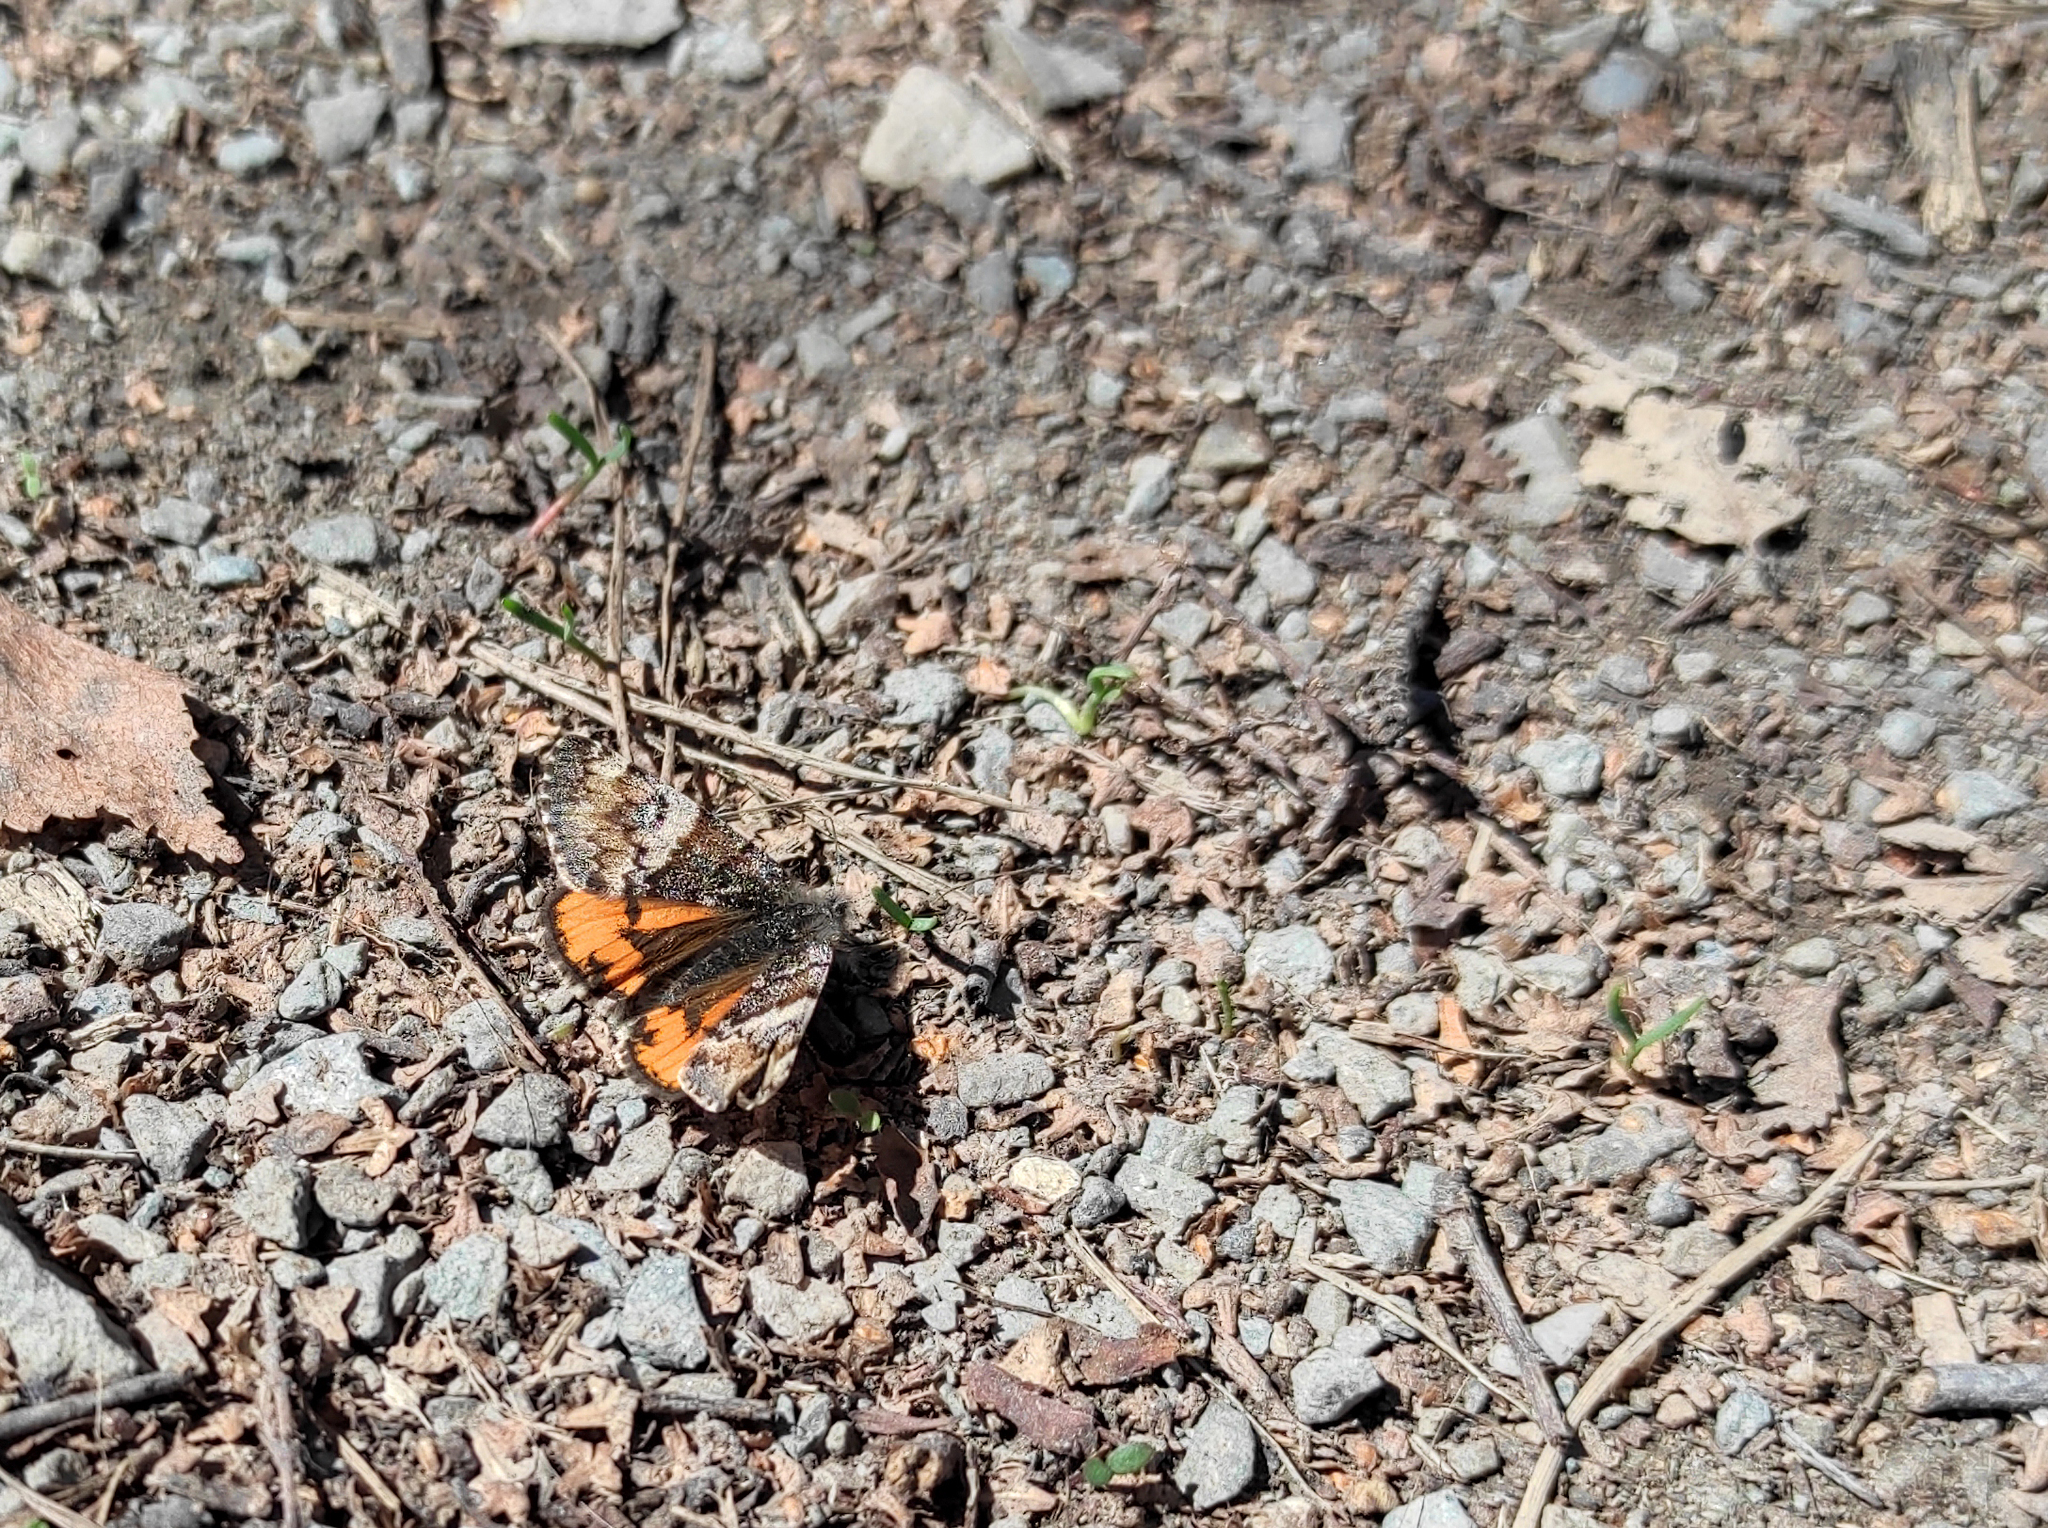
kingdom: Animalia
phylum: Arthropoda
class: Insecta
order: Lepidoptera
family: Geometridae
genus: Archiearis
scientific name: Archiearis parthenias
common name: Orange underwing
